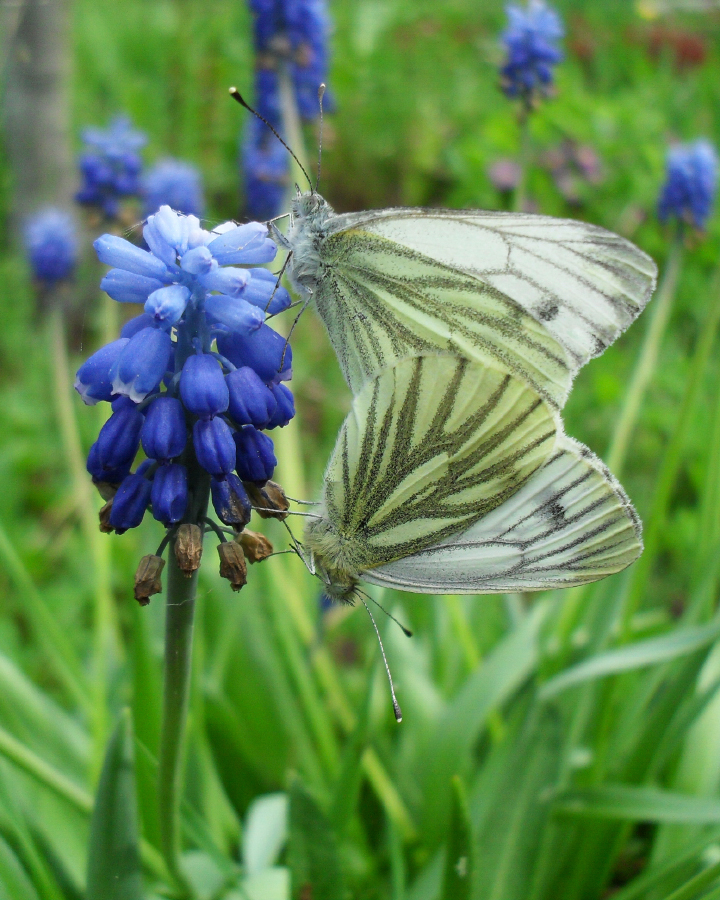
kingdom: Animalia
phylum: Arthropoda
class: Insecta
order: Lepidoptera
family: Pieridae
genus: Pieris
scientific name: Pieris napi
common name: Green-veined white
